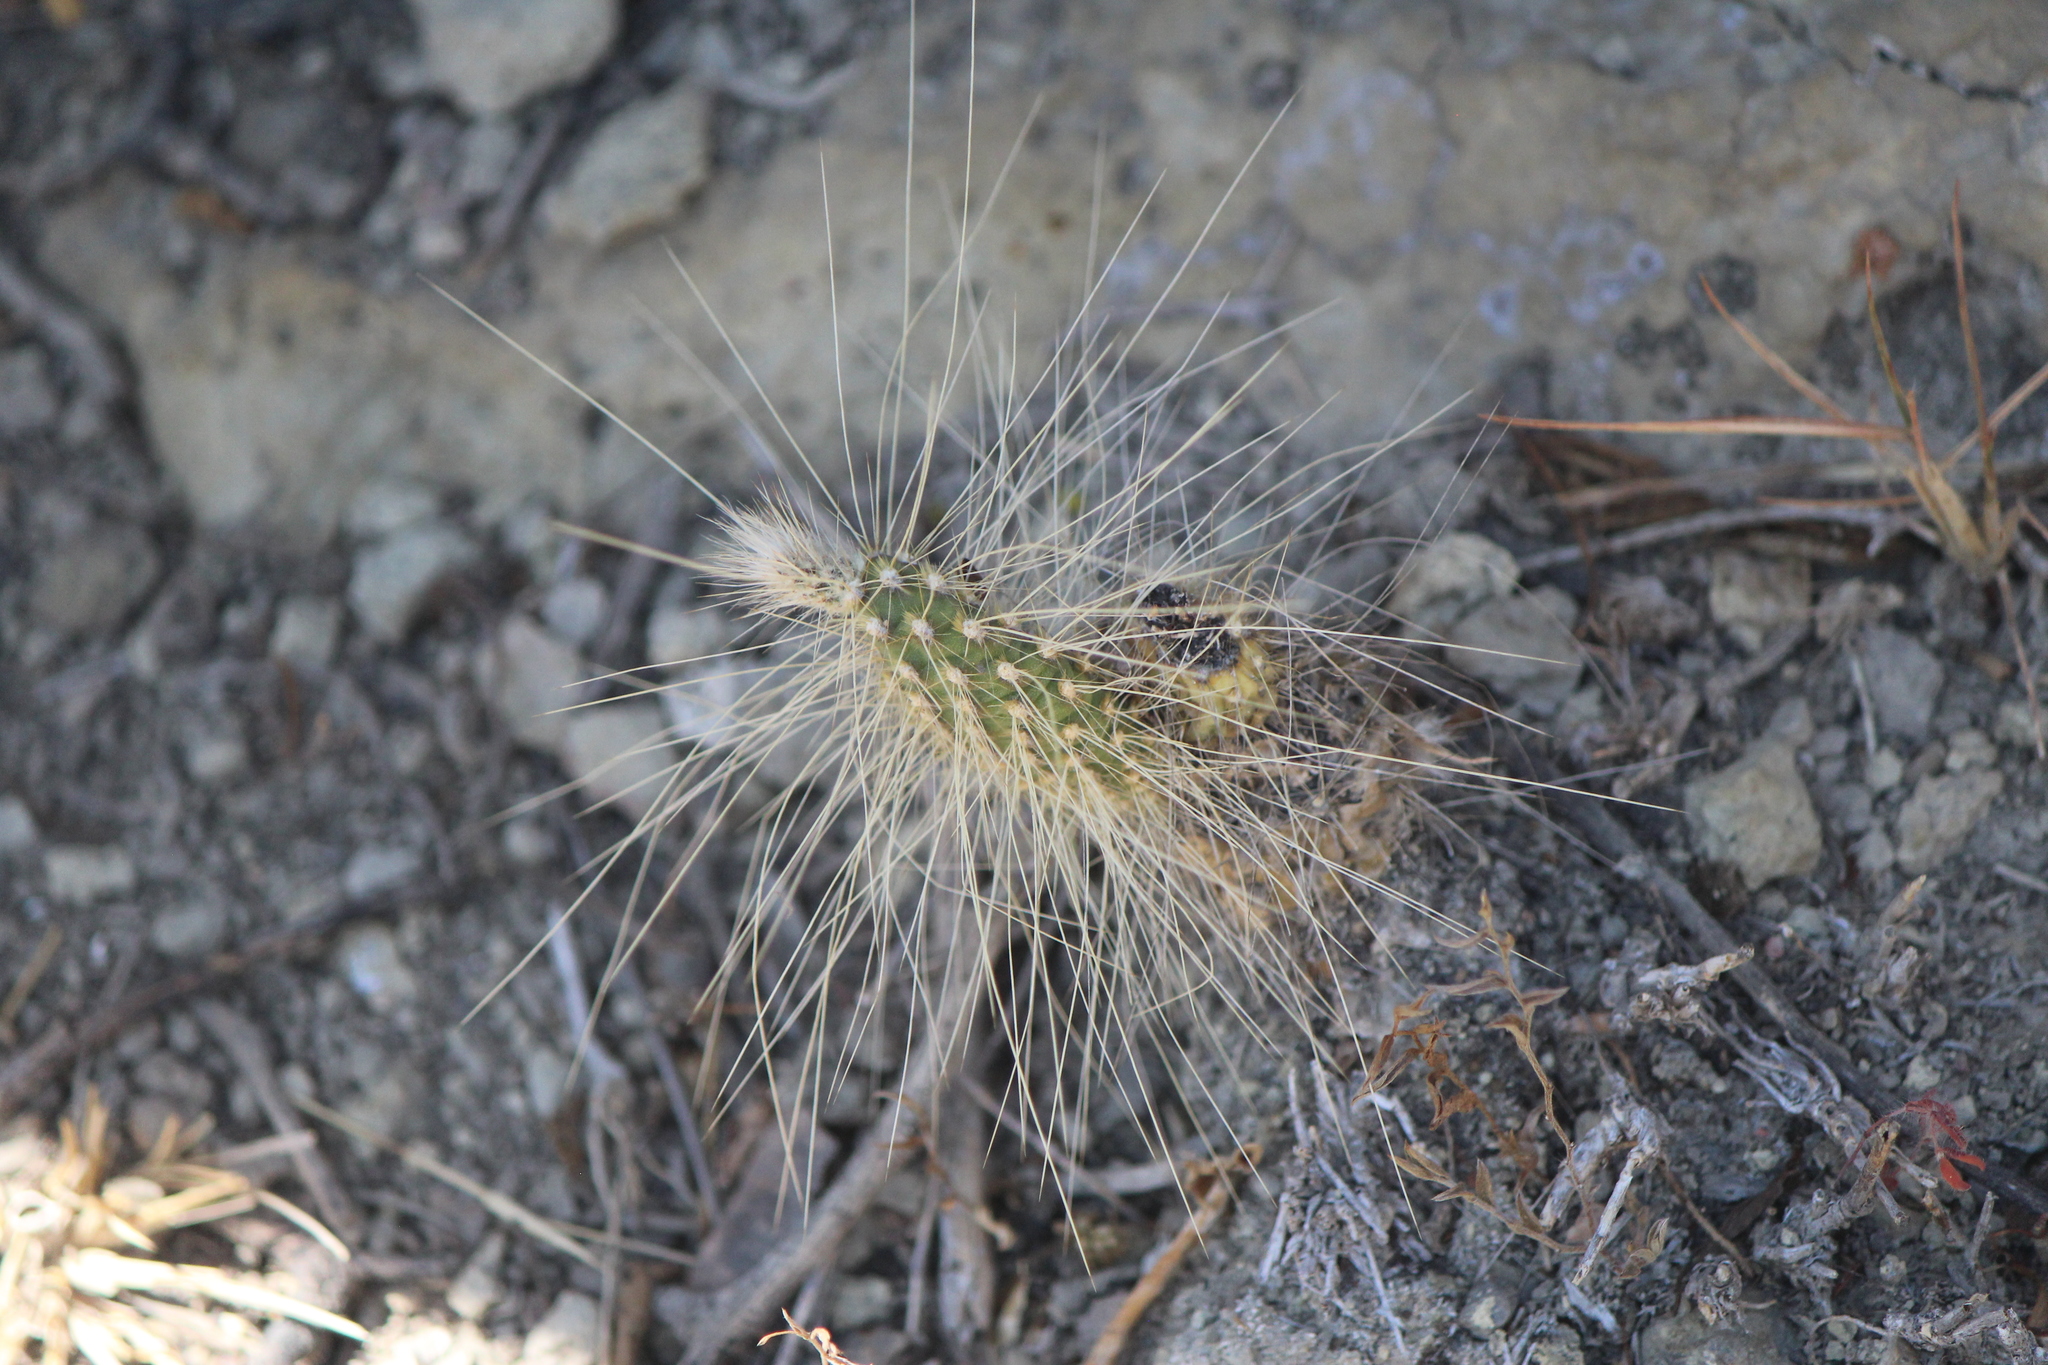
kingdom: Plantae
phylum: Tracheophyta
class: Magnoliopsida
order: Caryophyllales
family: Cactaceae
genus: Opuntia
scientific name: Opuntia leucotricha
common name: Arborescent pricklypear
